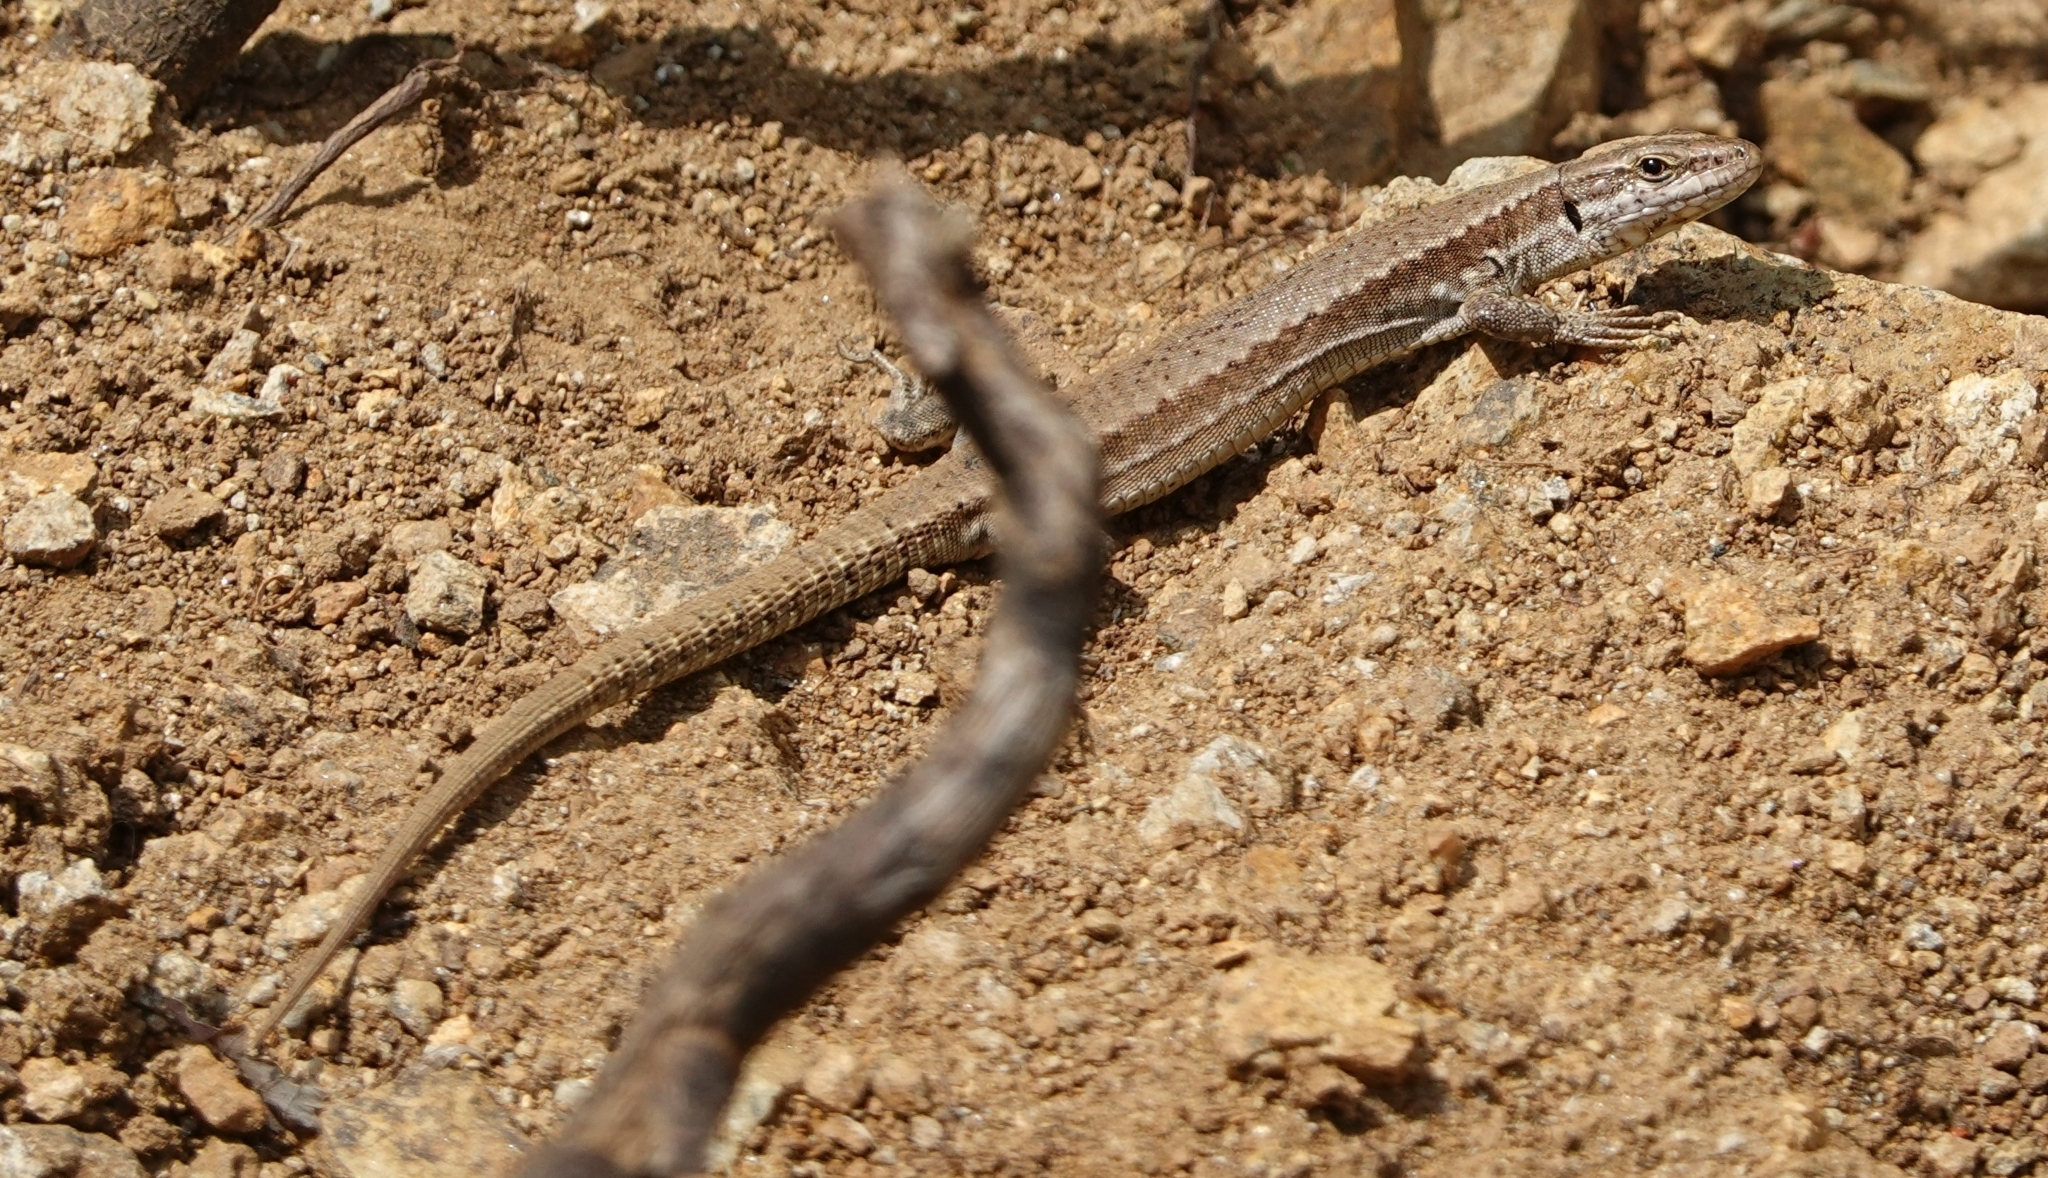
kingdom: Animalia
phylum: Chordata
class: Squamata
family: Lacertidae
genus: Podarcis
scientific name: Podarcis muralis
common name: Common wall lizard
